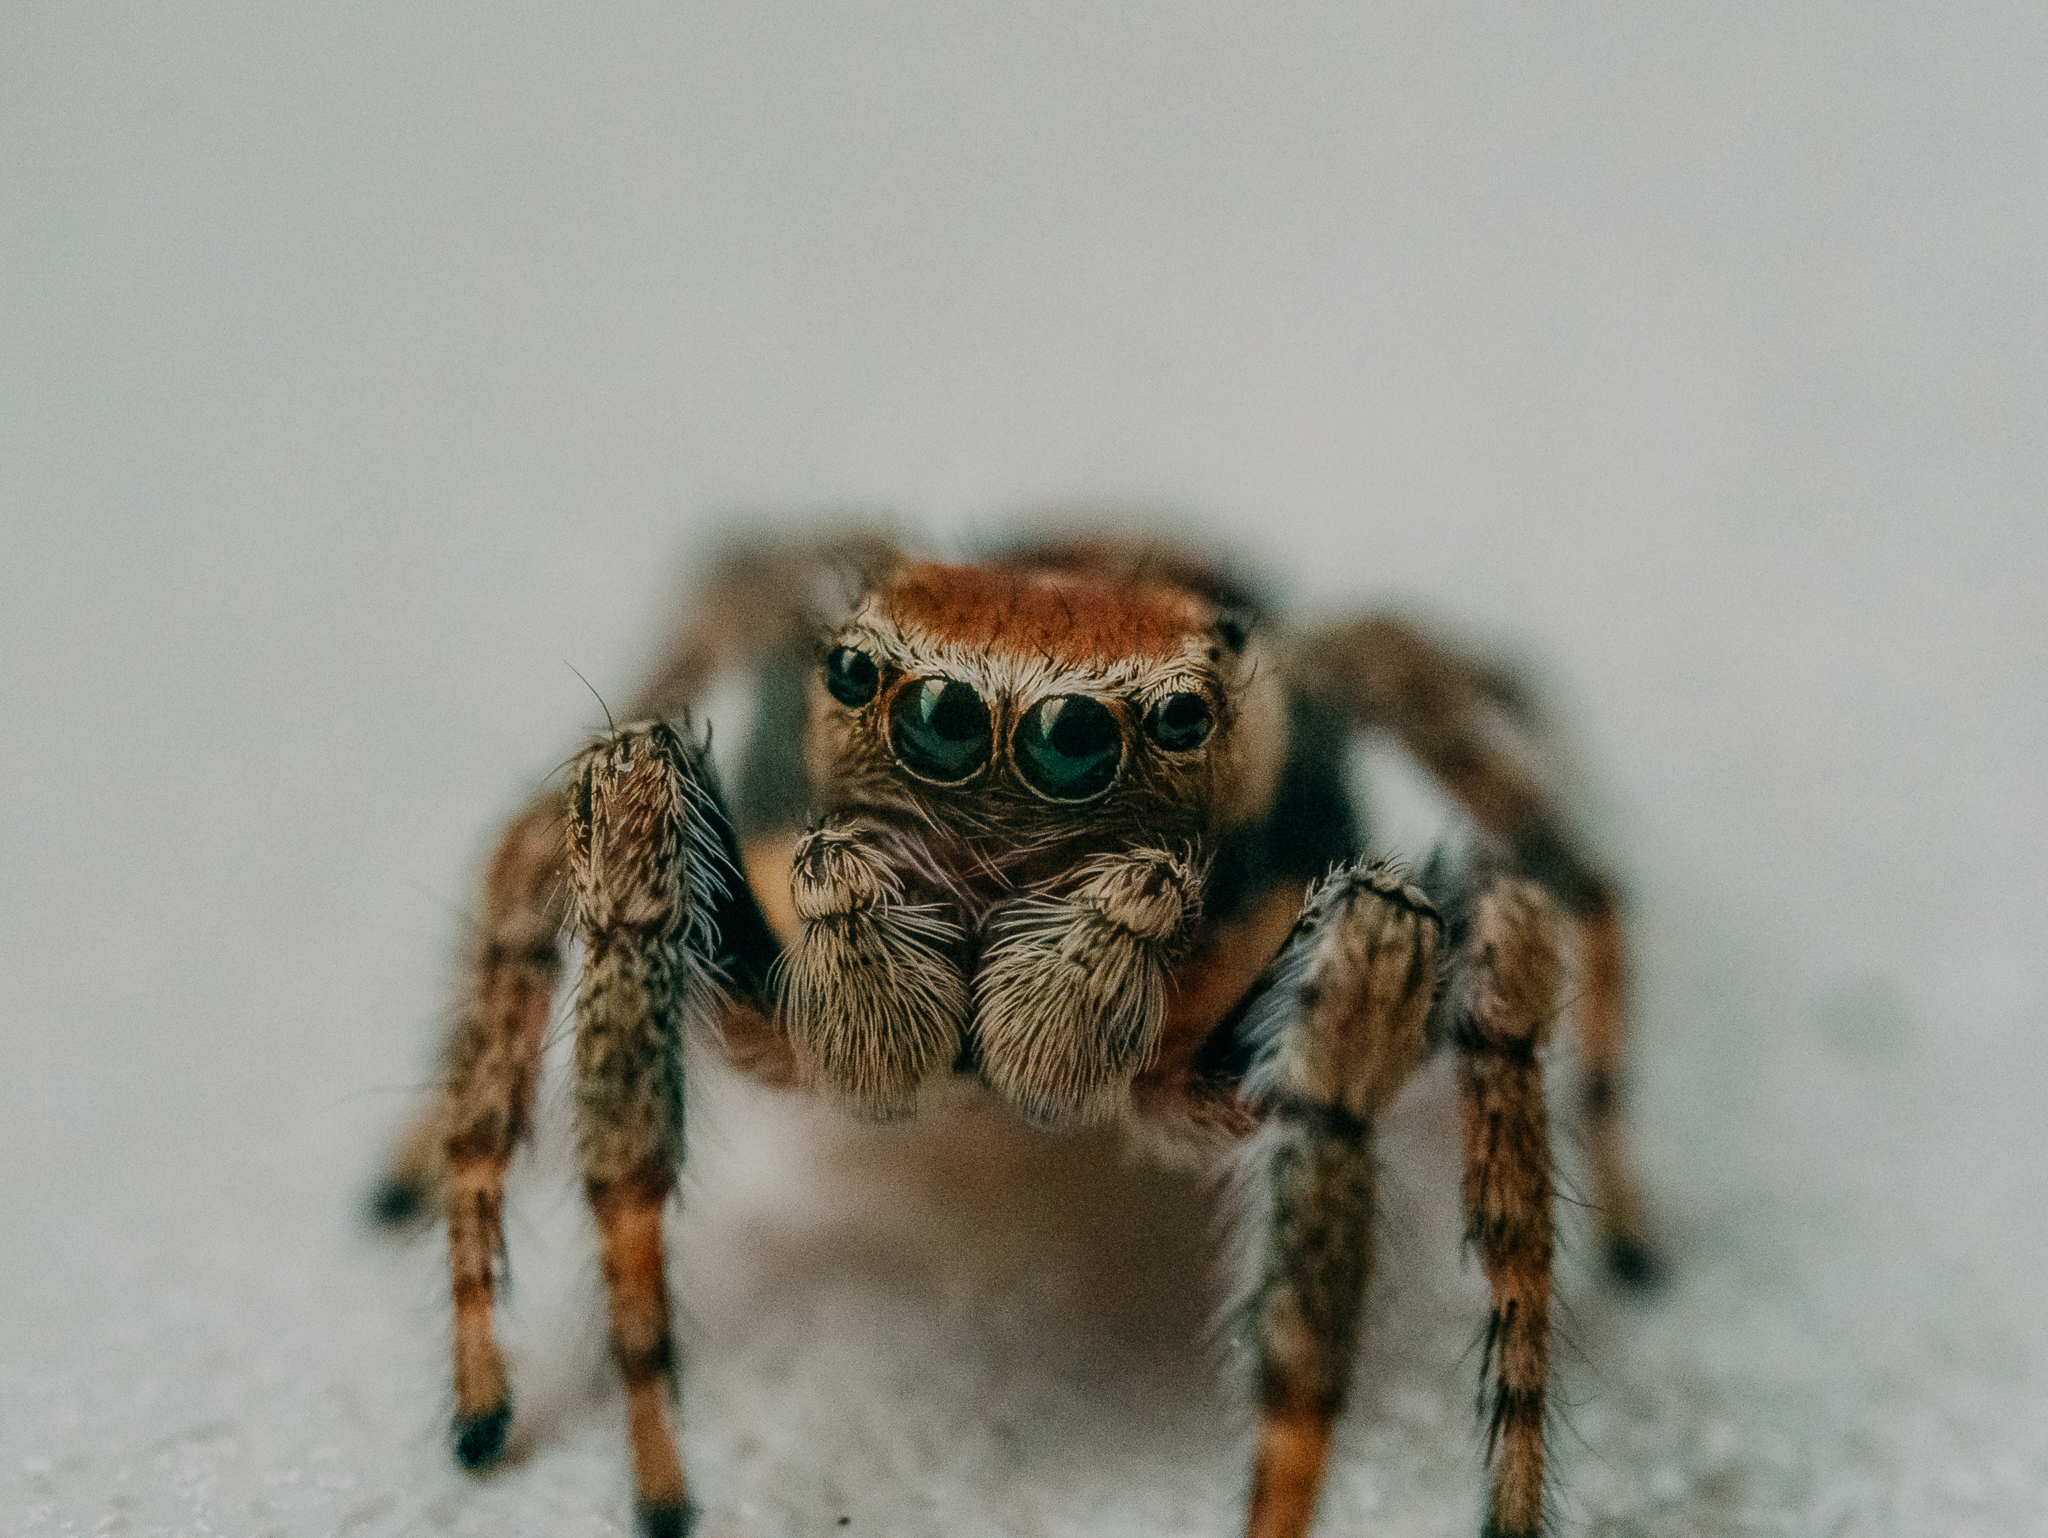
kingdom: Animalia
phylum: Arthropoda
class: Arachnida
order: Araneae
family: Salticidae
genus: Evarcha
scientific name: Evarcha falcata
